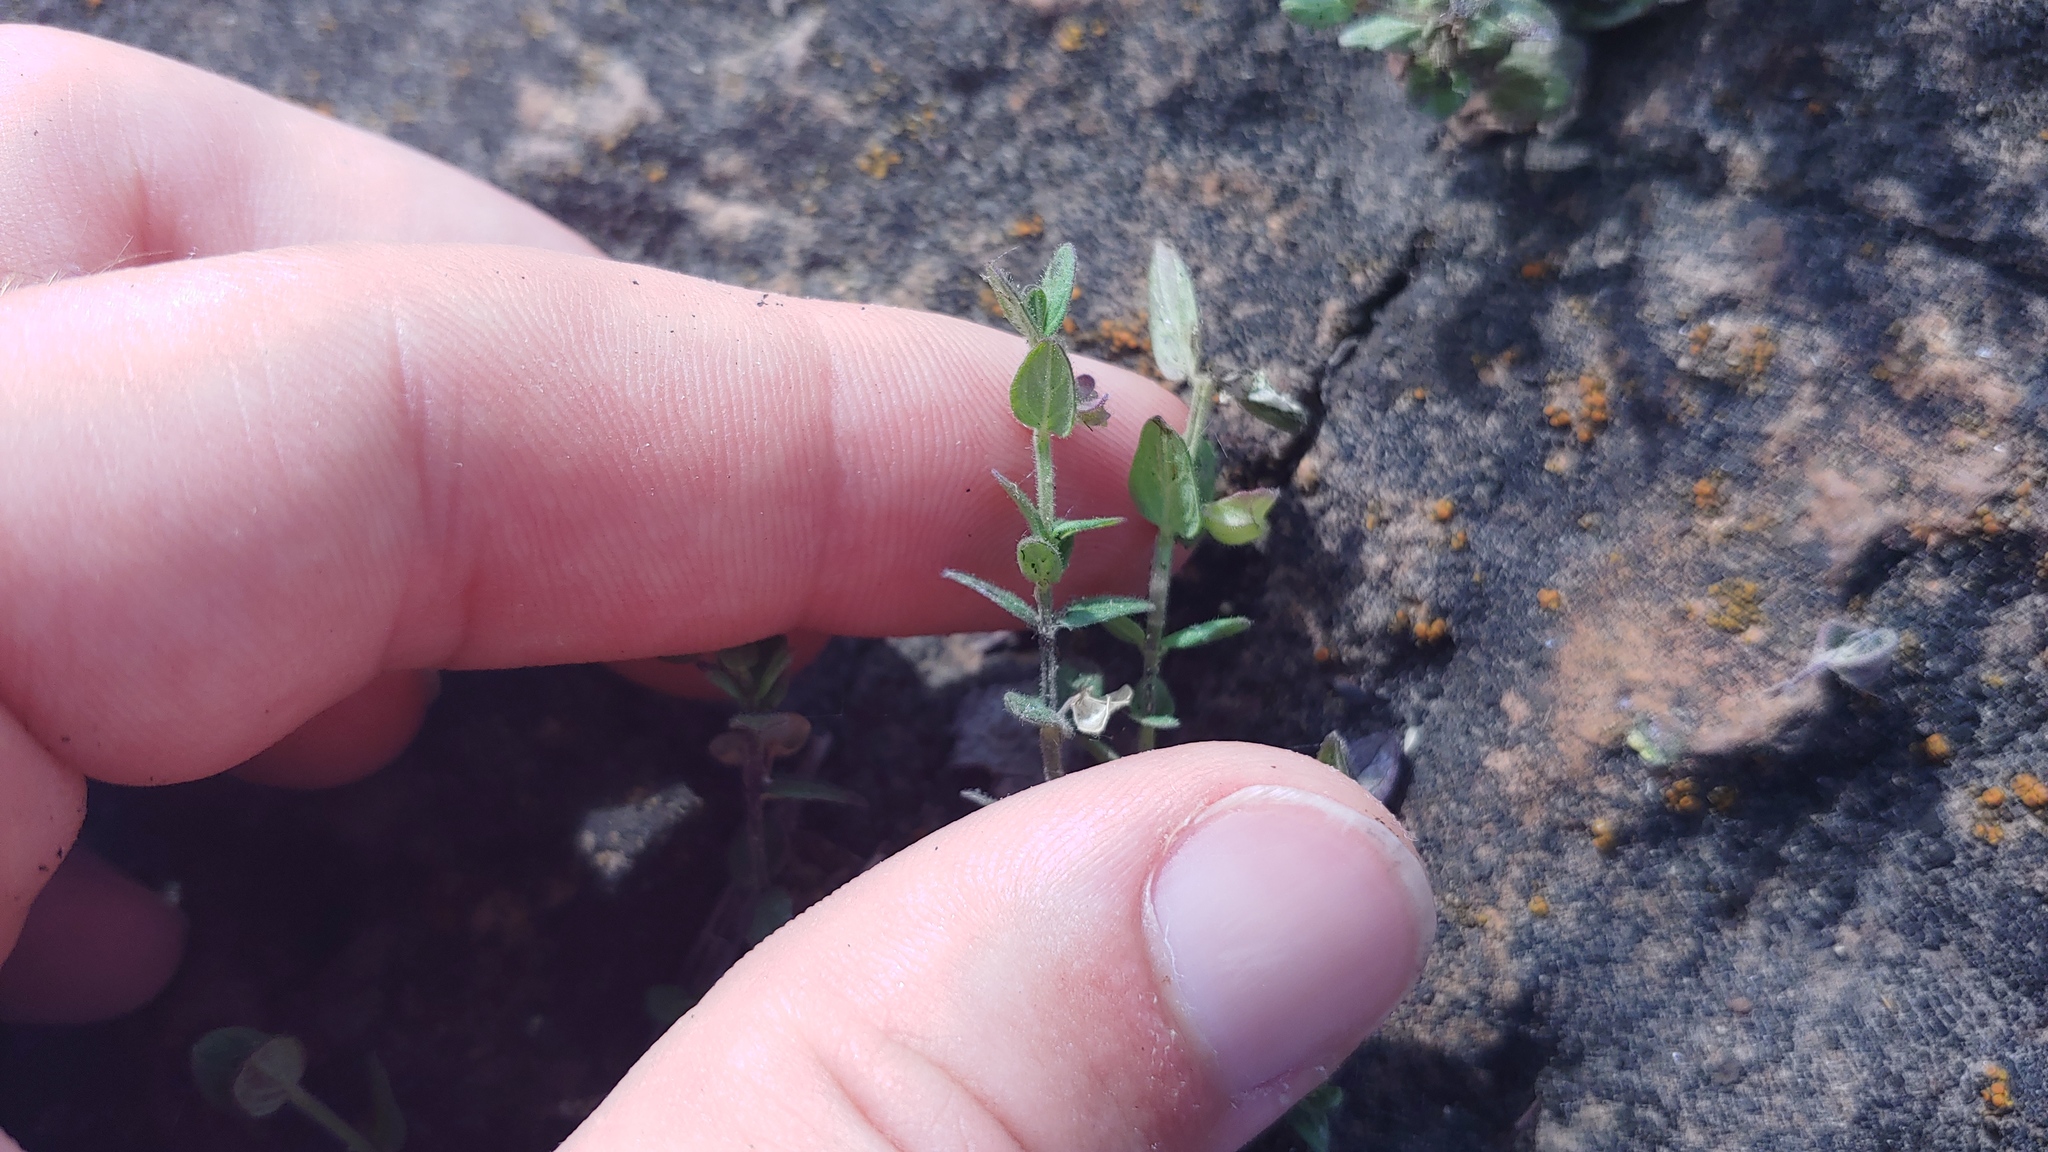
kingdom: Plantae
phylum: Tracheophyta
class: Magnoliopsida
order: Lamiales
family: Lamiaceae
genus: Scutellaria
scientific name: Scutellaria parvula
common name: Little scullcap
